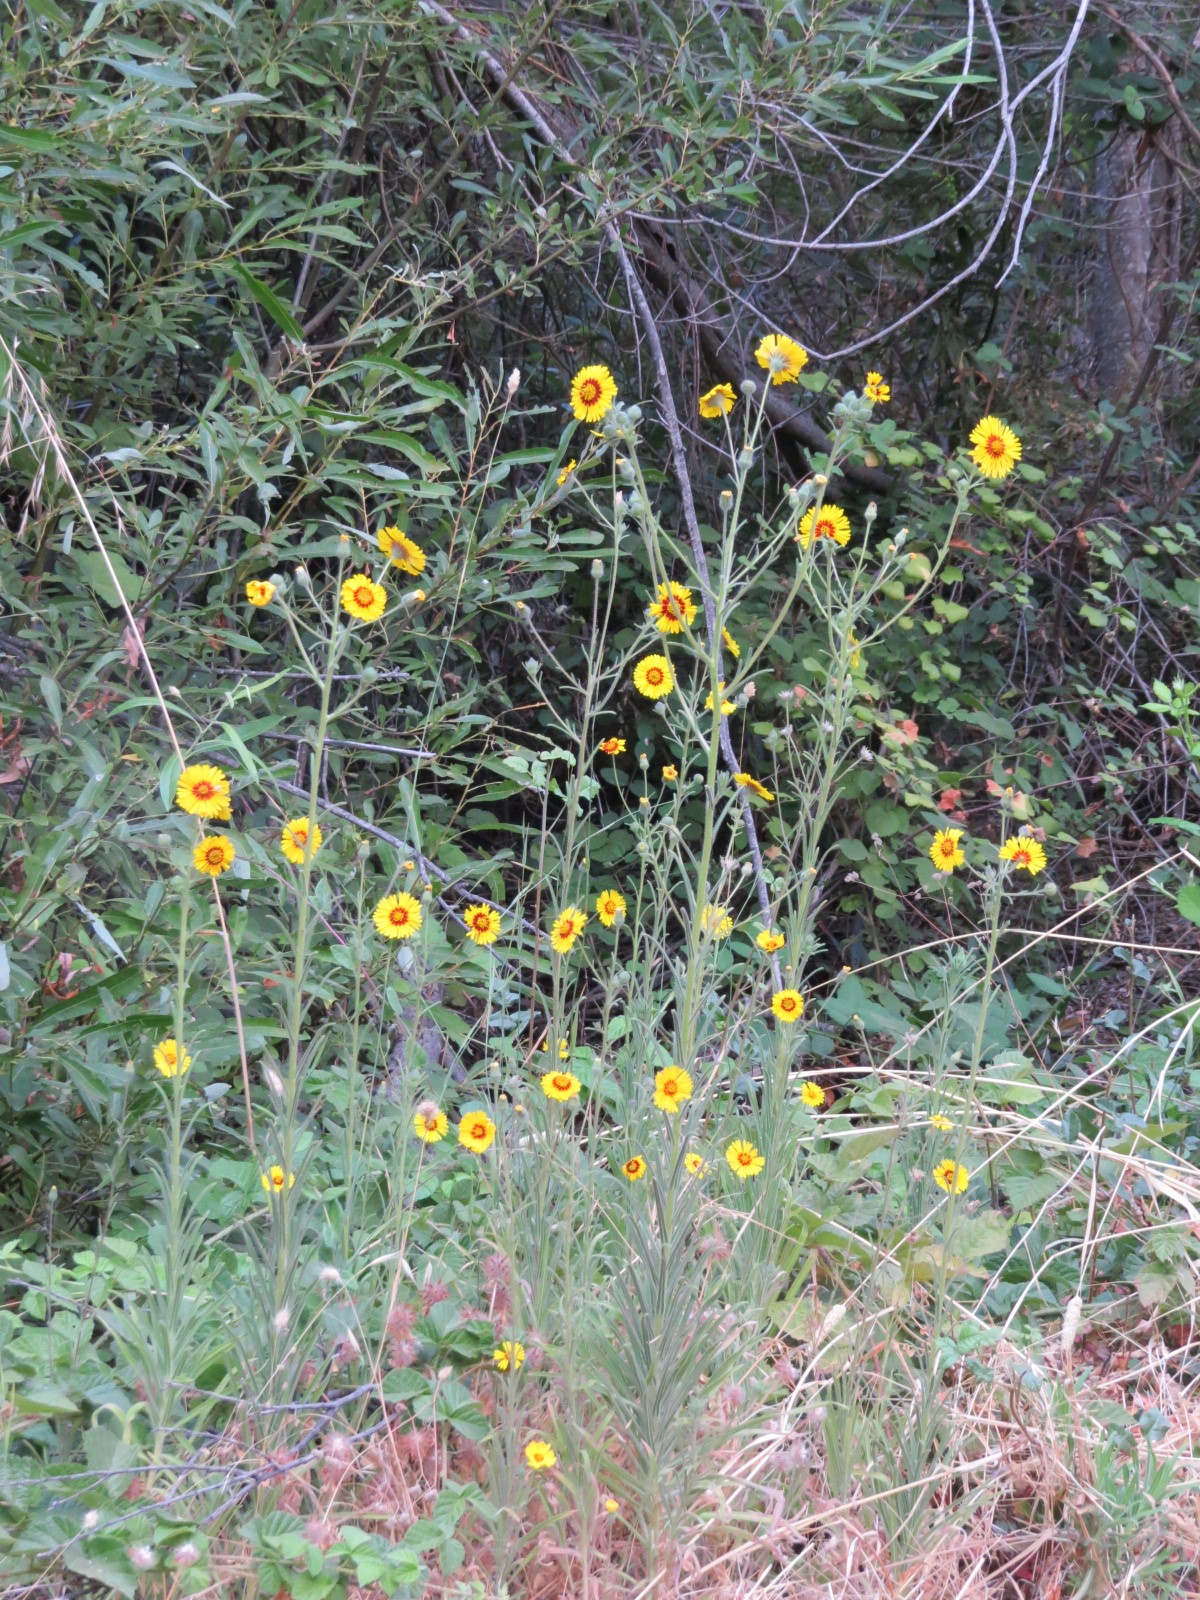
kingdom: Plantae
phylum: Tracheophyta
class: Magnoliopsida
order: Asterales
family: Asteraceae
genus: Madia
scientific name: Madia elegans
